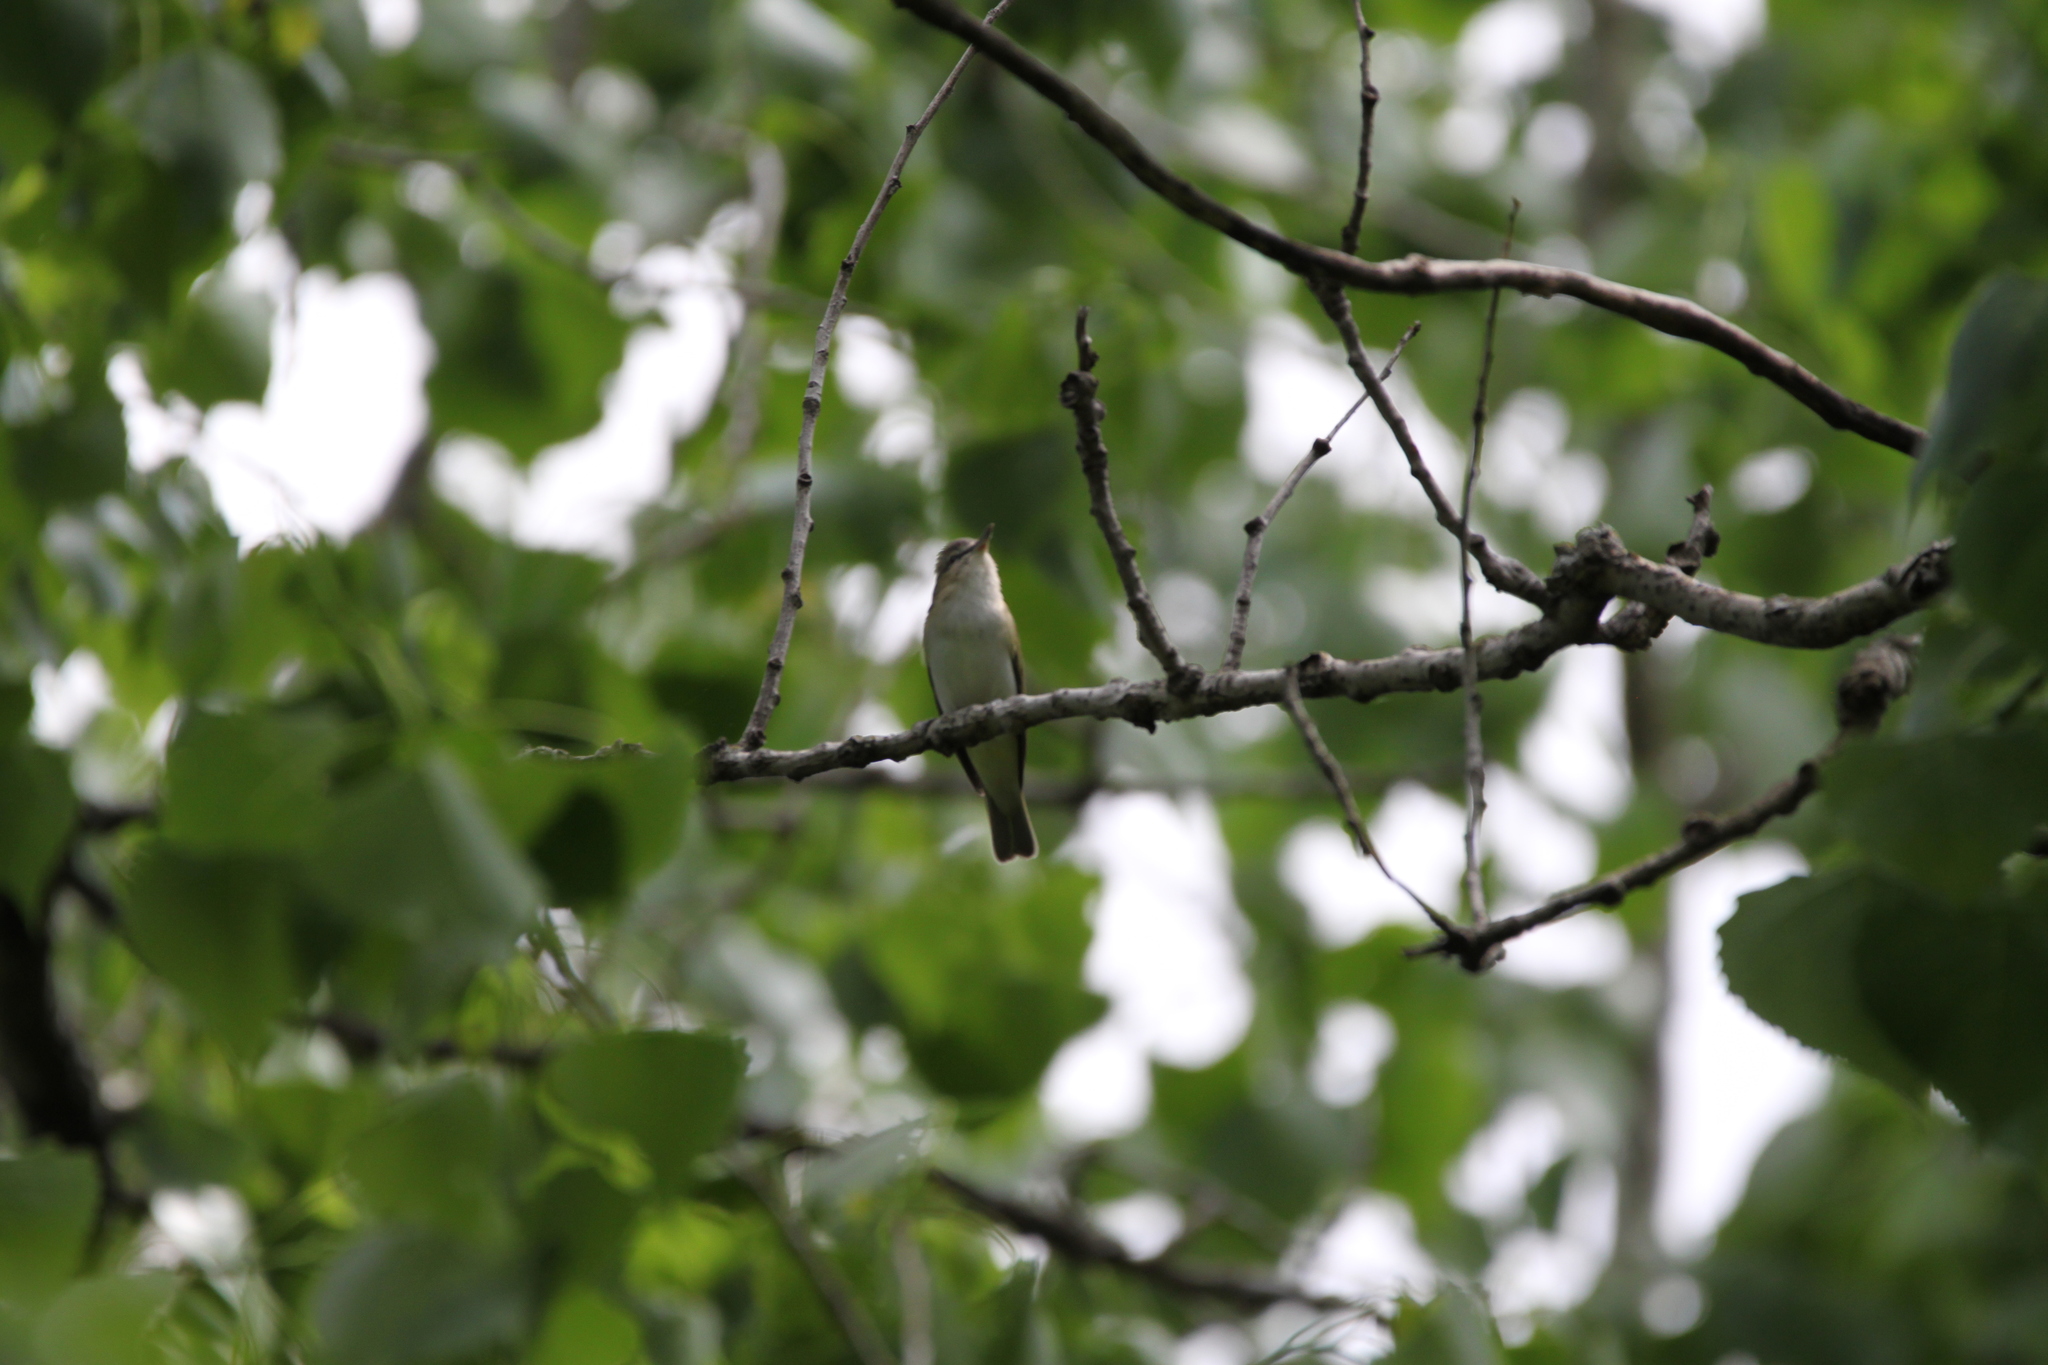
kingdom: Animalia
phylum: Chordata
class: Aves
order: Passeriformes
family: Vireonidae
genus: Vireo
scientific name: Vireo olivaceus
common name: Red-eyed vireo
